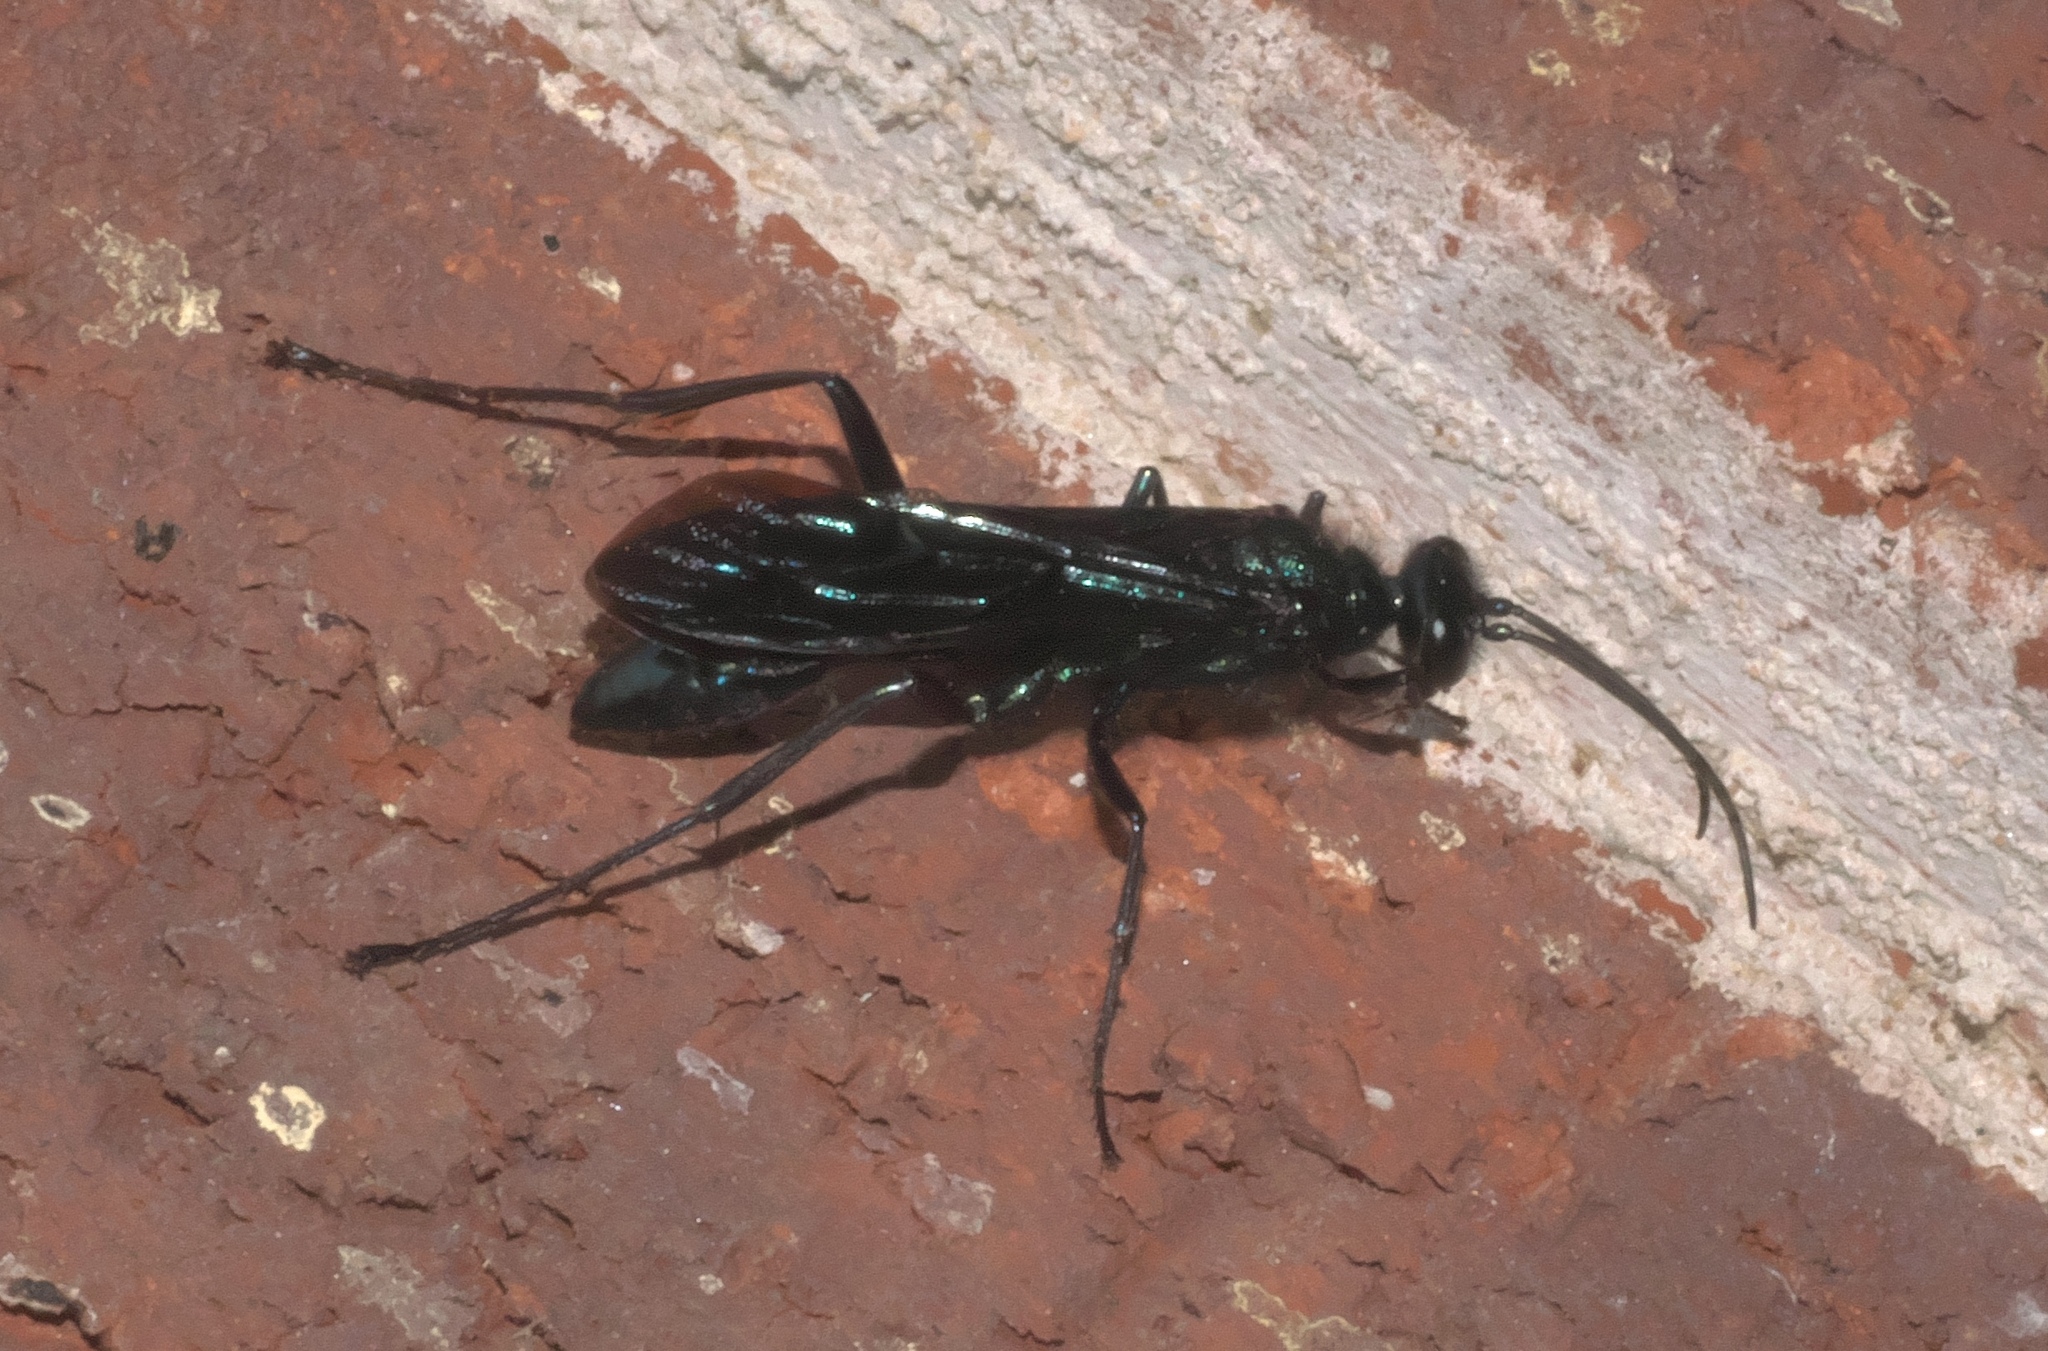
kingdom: Animalia
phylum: Arthropoda
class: Insecta
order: Hymenoptera
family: Sphecidae
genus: Chalybion
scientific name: Chalybion californicum
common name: Mud dauber
